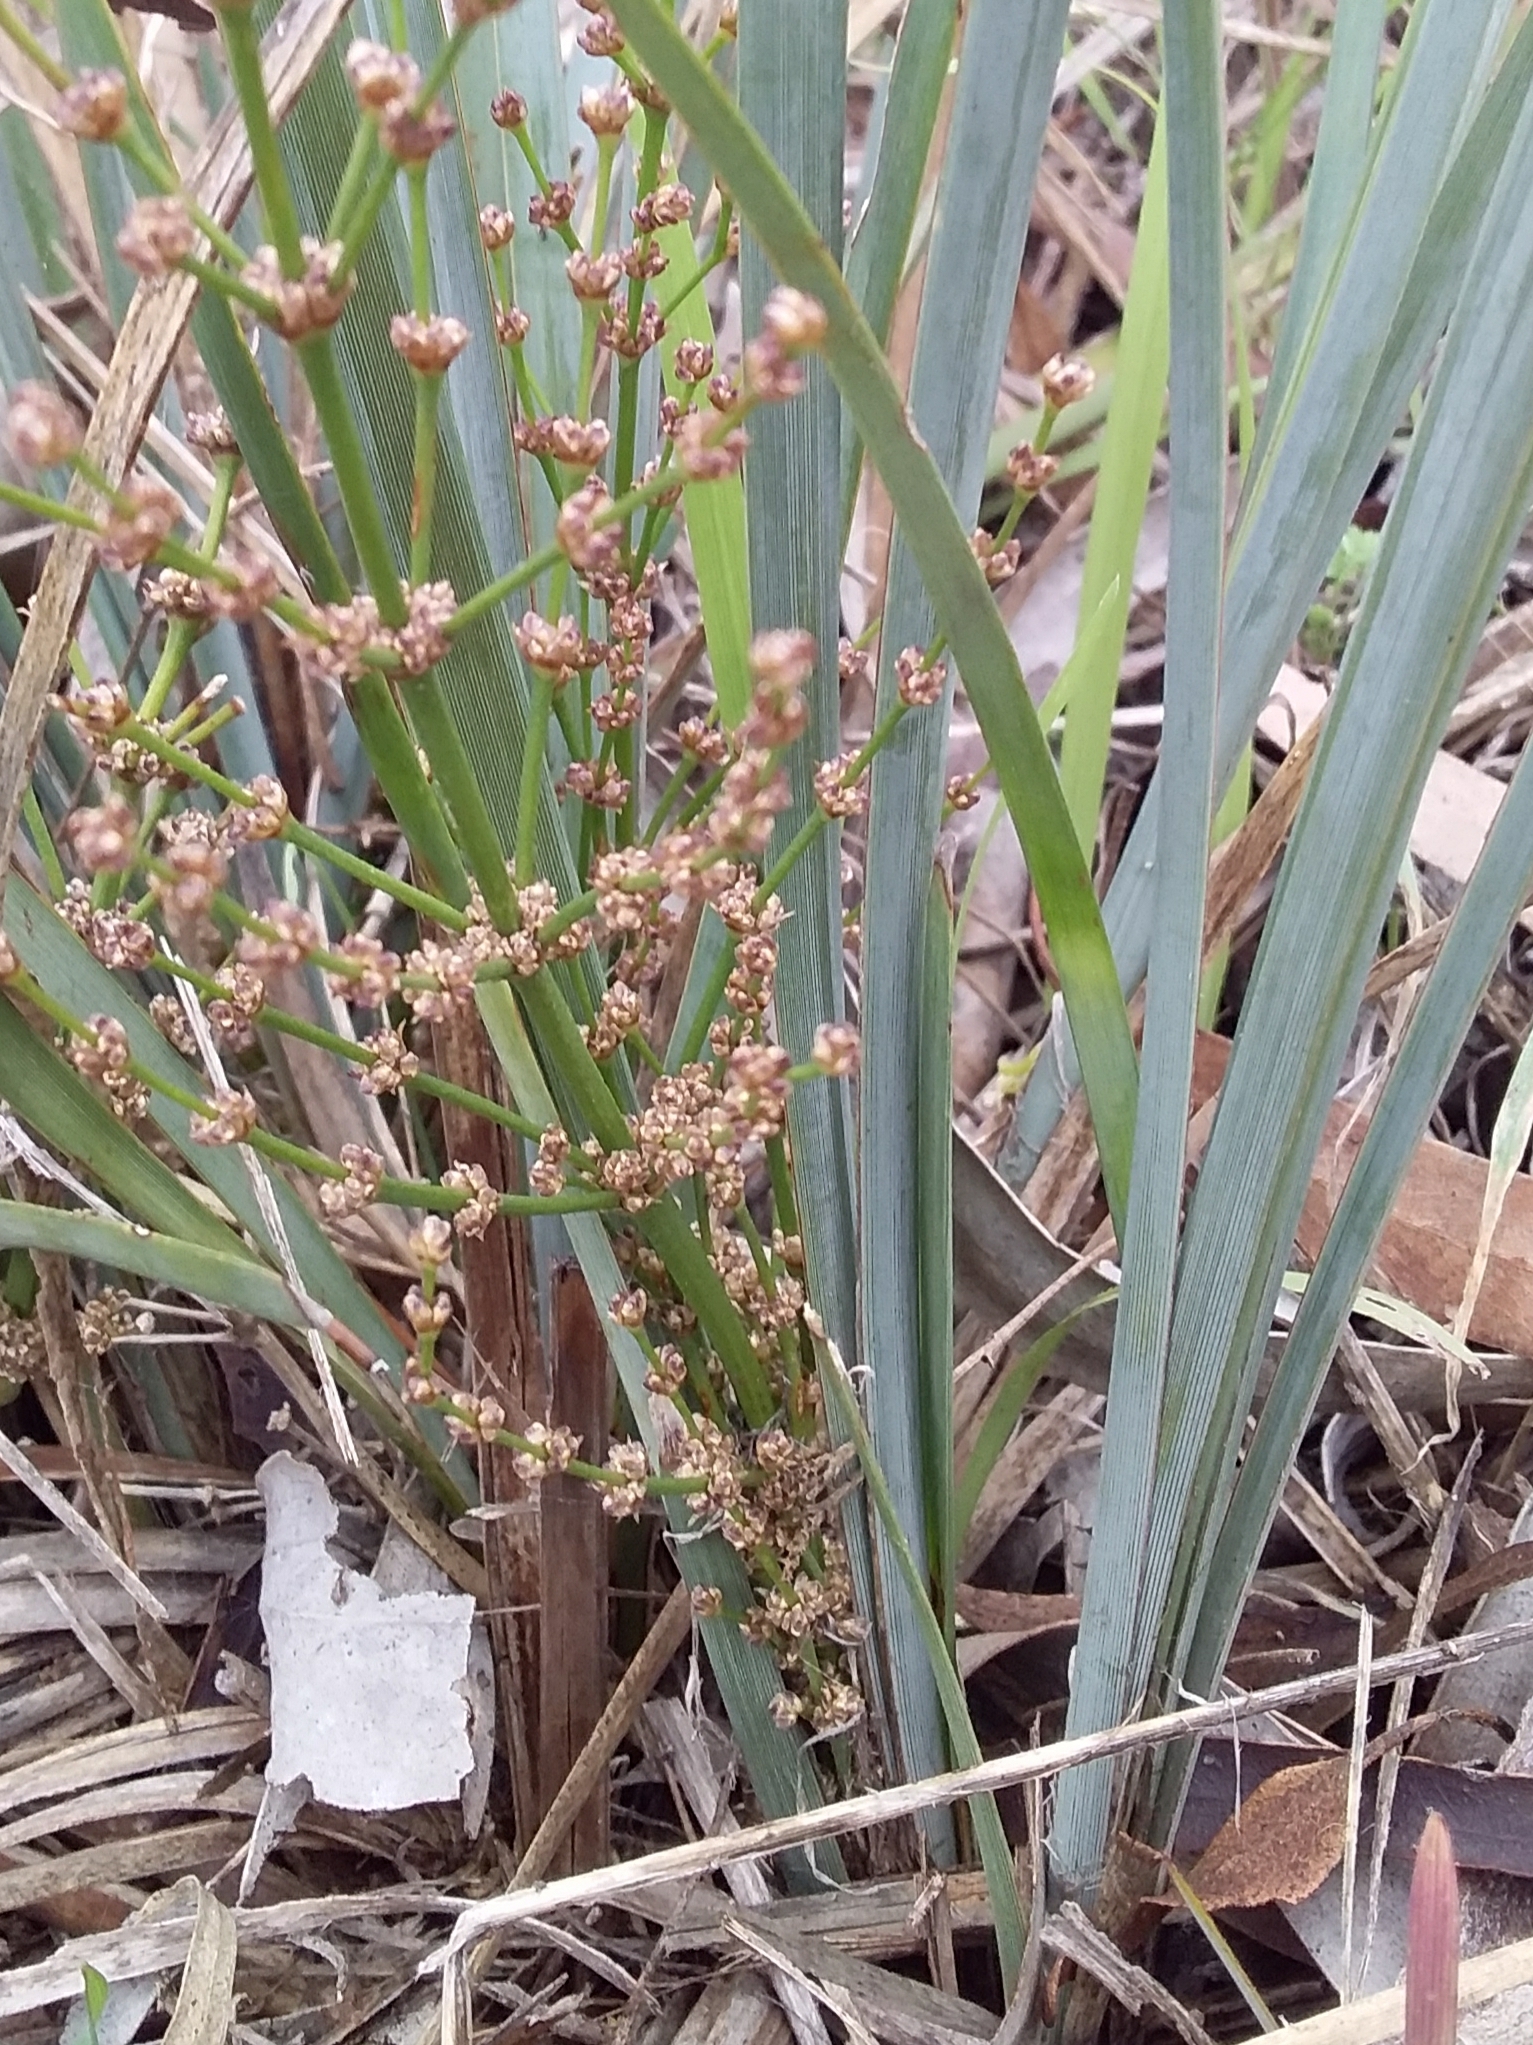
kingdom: Plantae
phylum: Tracheophyta
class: Liliopsida
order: Asparagales
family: Asparagaceae
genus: Lomandra
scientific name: Lomandra multiflora
